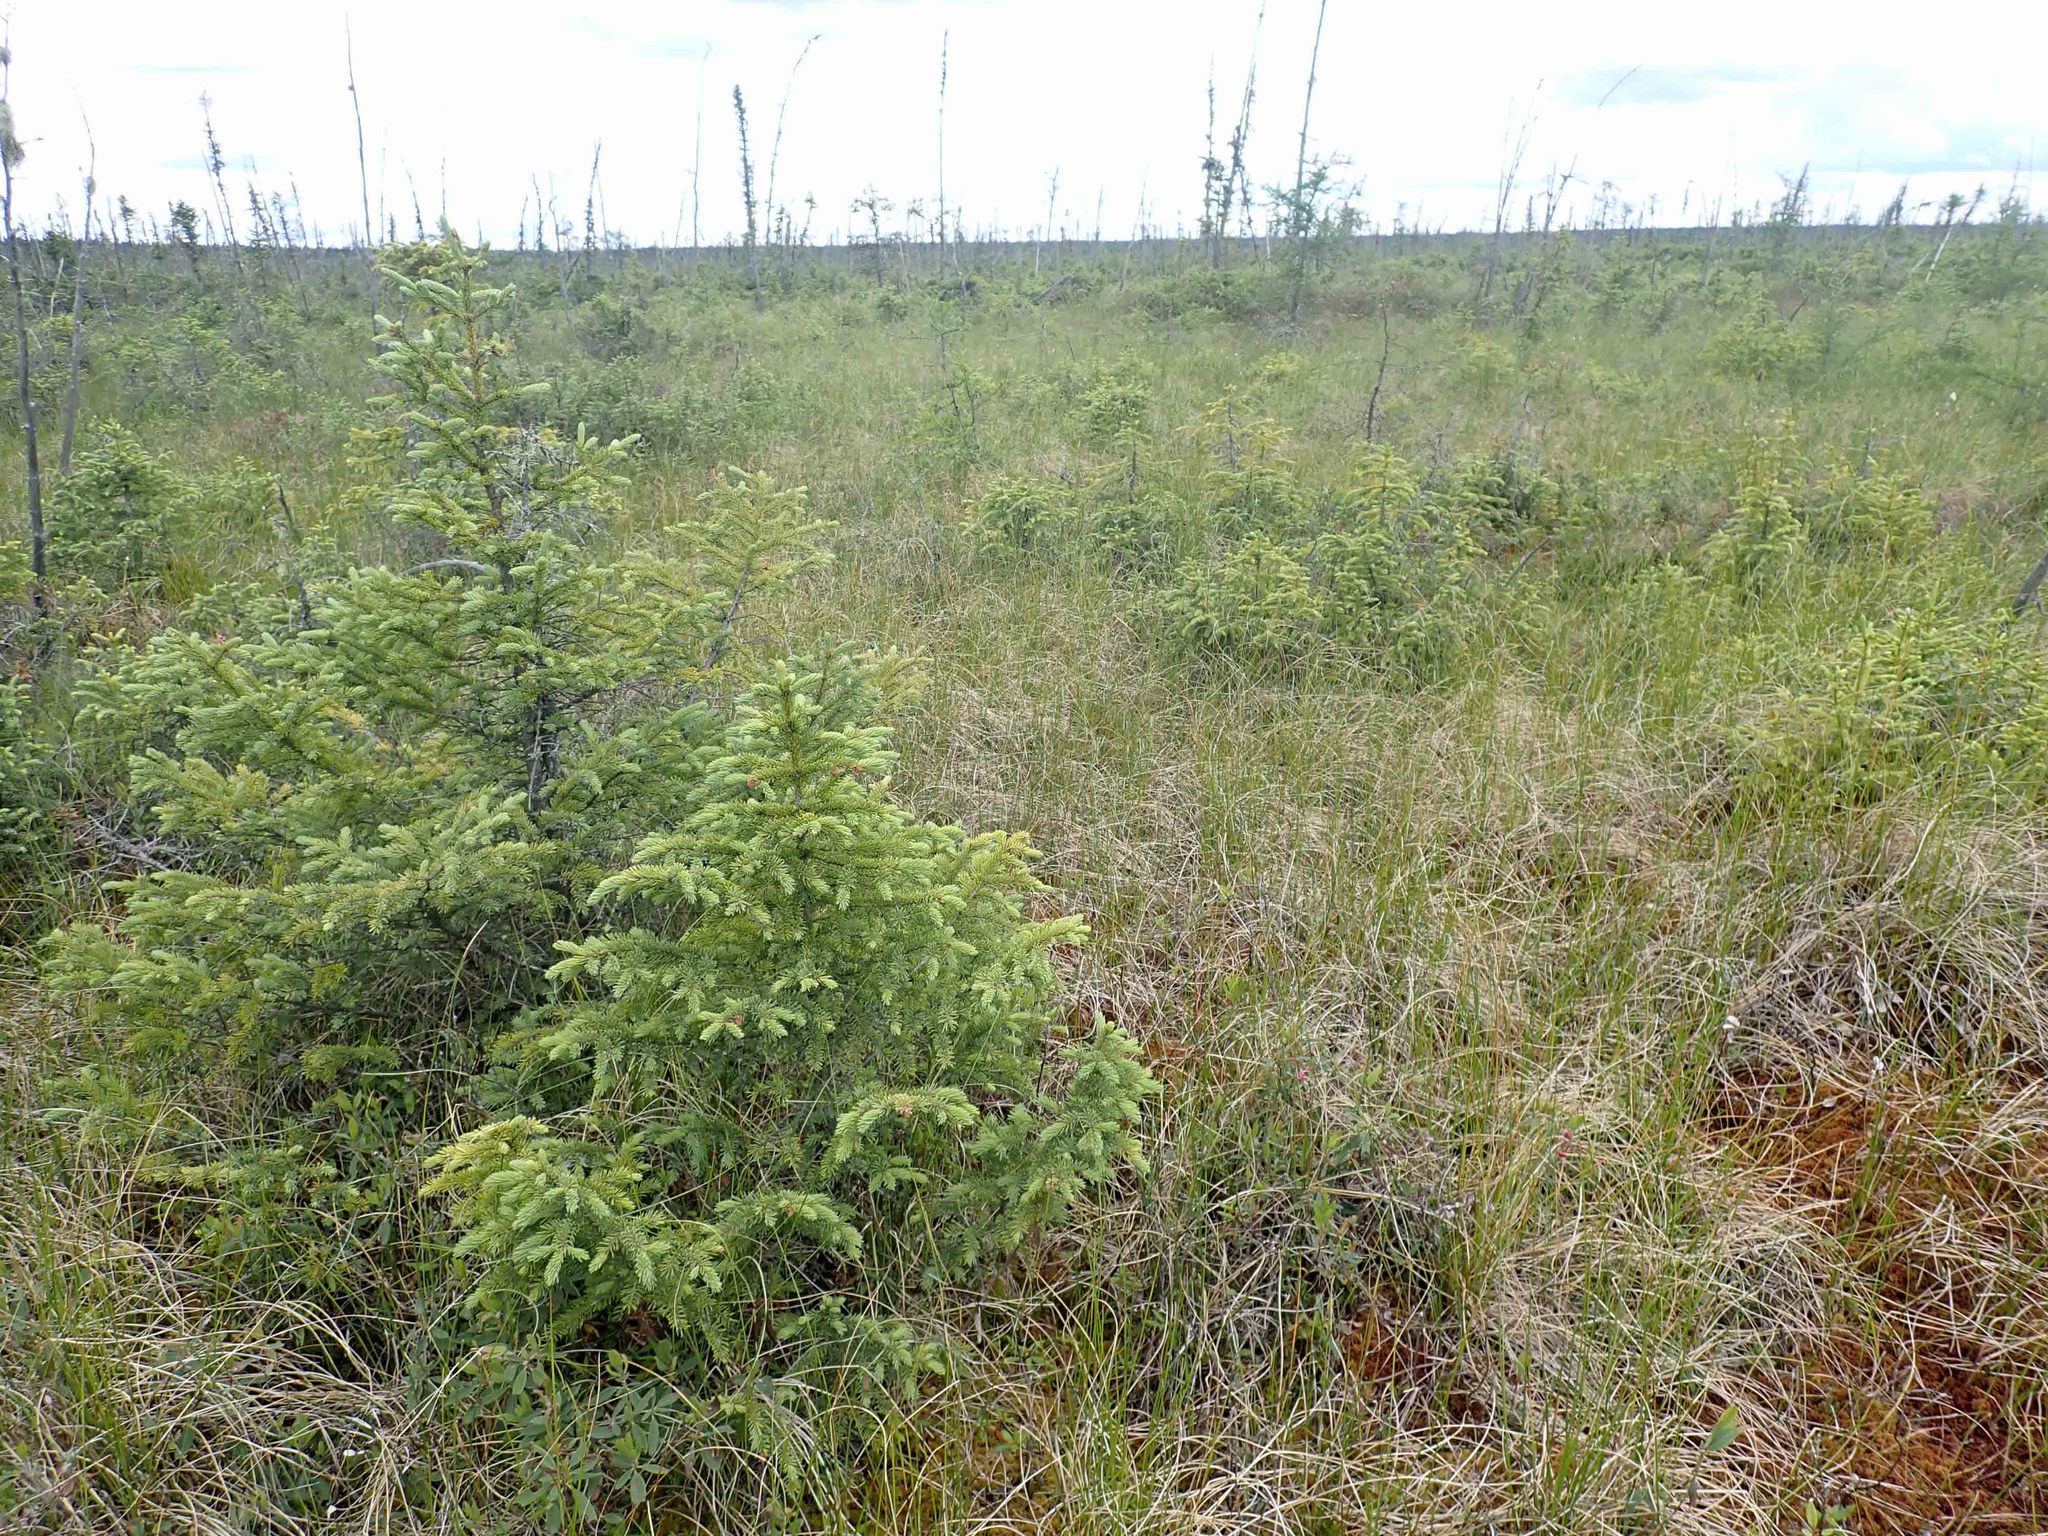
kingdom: Plantae
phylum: Tracheophyta
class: Pinopsida
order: Pinales
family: Pinaceae
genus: Picea
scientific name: Picea mariana
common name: Black spruce
